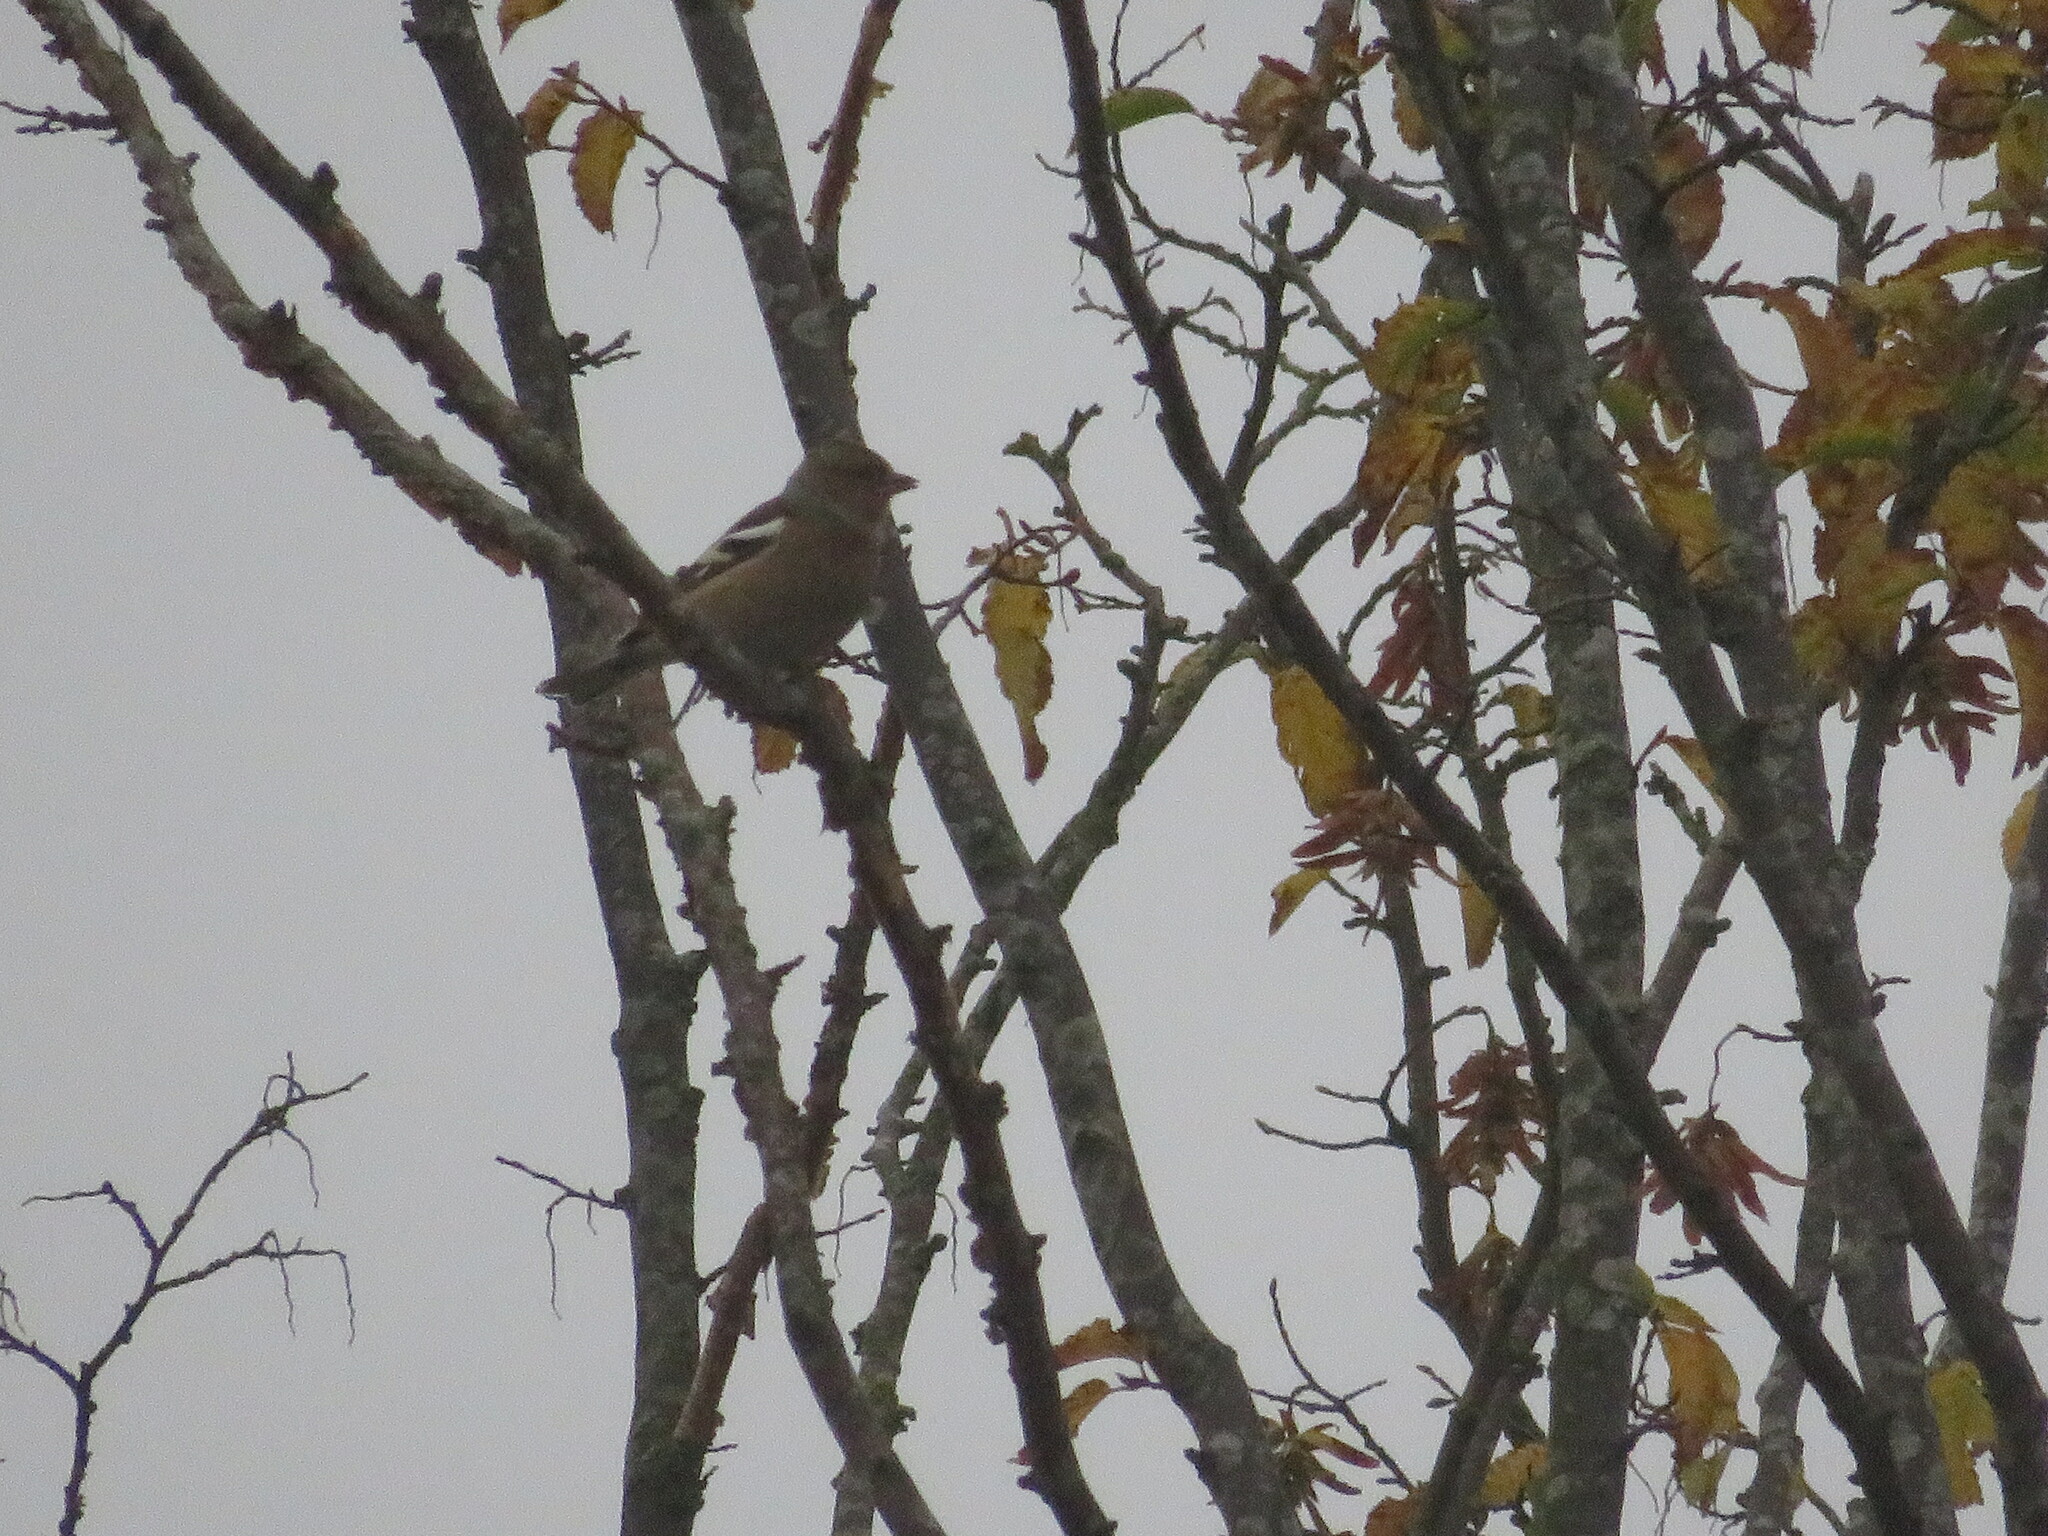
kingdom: Animalia
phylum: Chordata
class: Aves
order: Passeriformes
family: Fringillidae
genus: Fringilla
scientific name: Fringilla coelebs
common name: Common chaffinch
